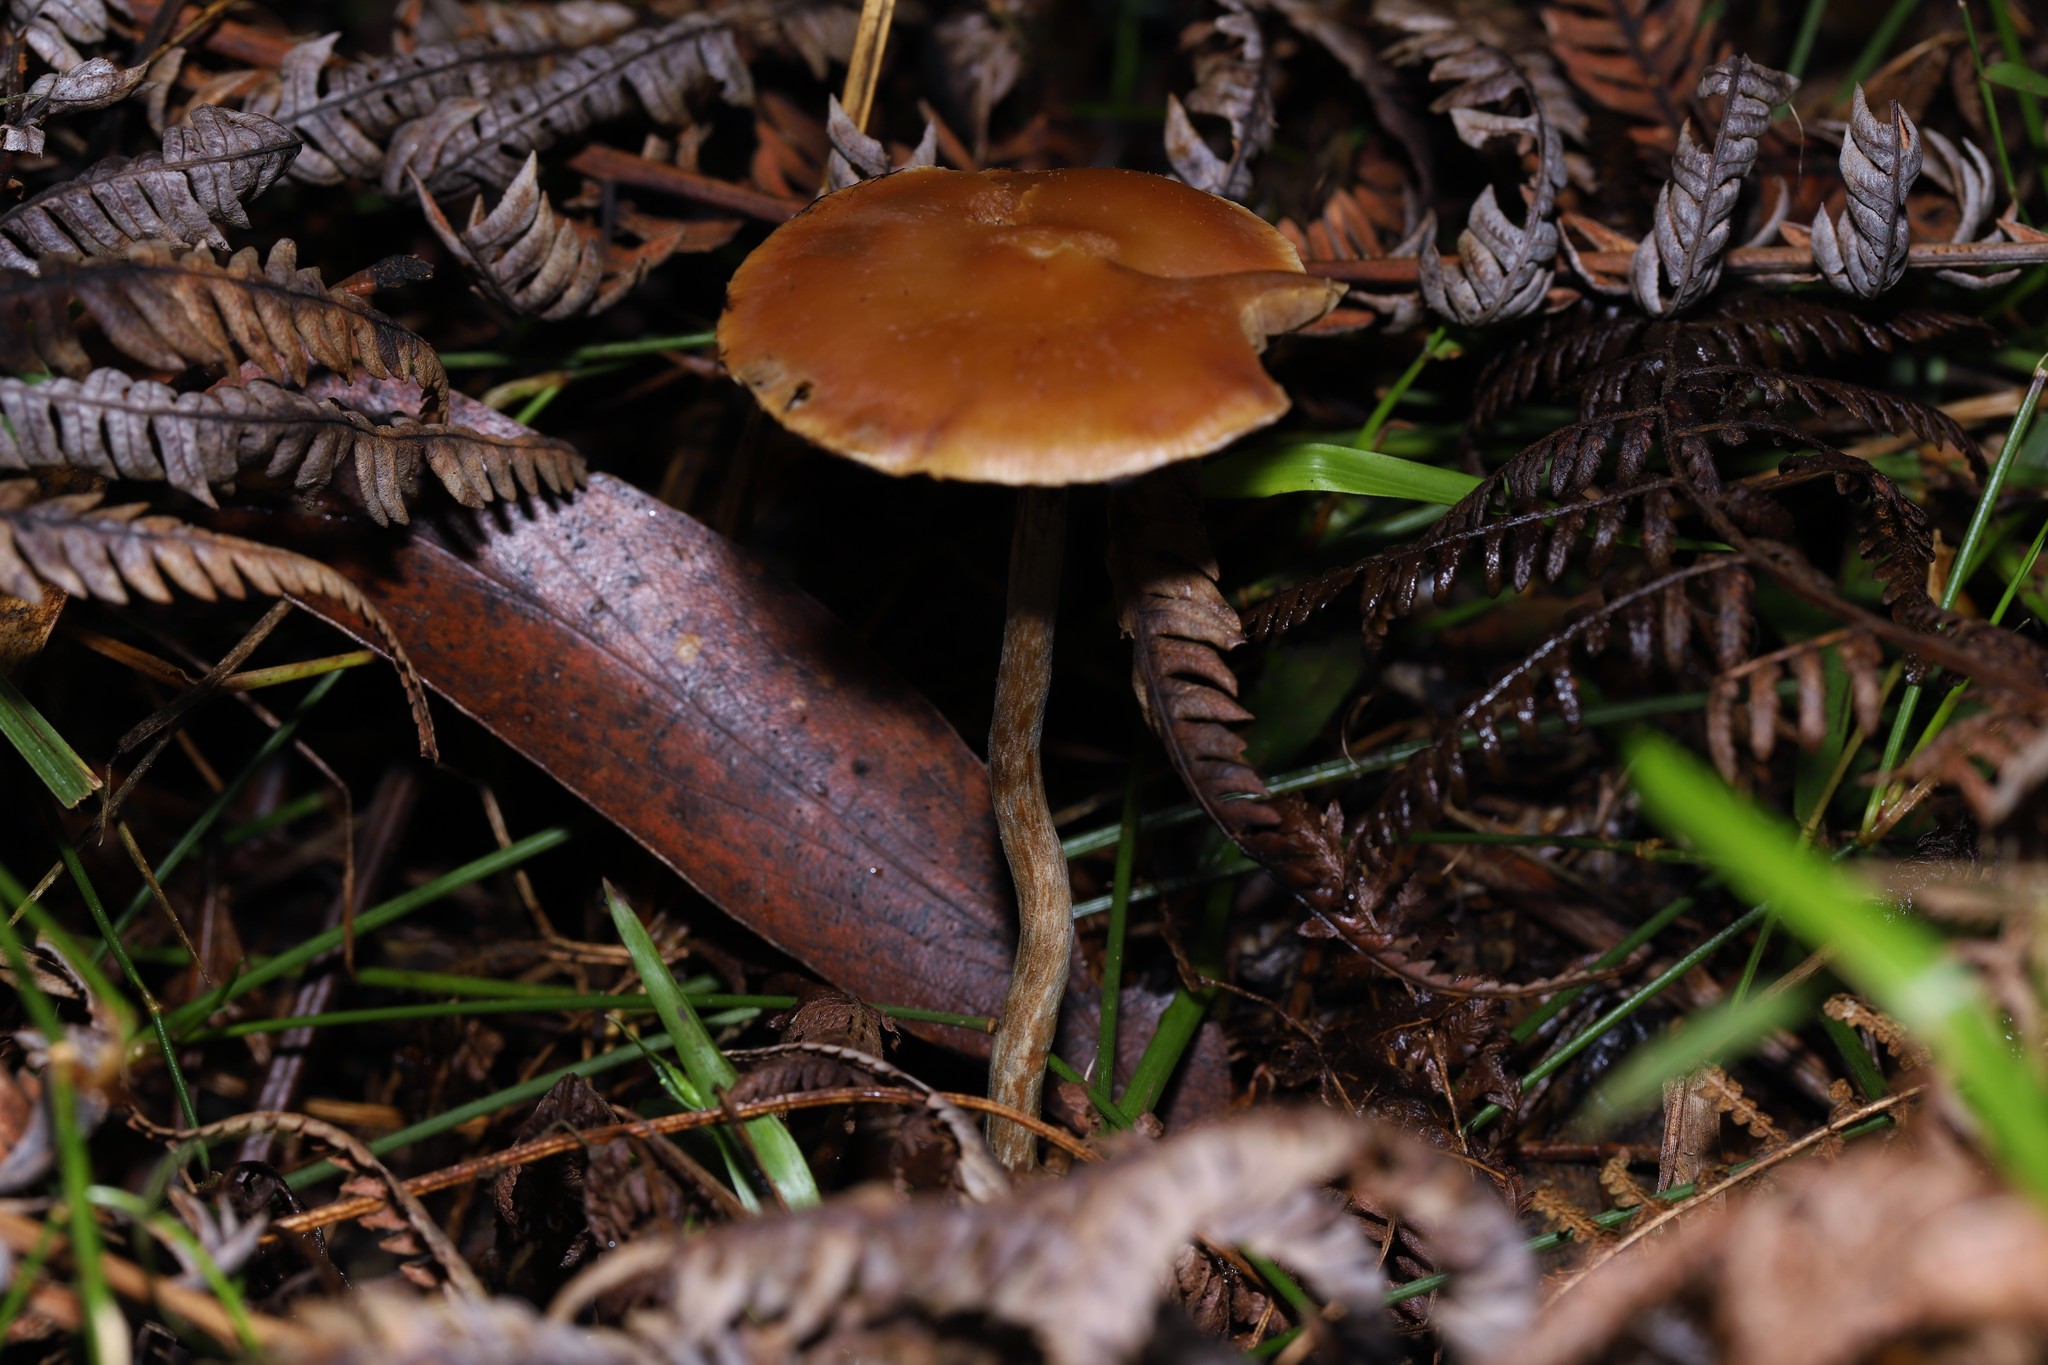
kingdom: Fungi
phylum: Basidiomycota
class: Agaricomycetes
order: Agaricales
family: Hymenogastraceae
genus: Psilocybe
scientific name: Psilocybe subaeruginosa
